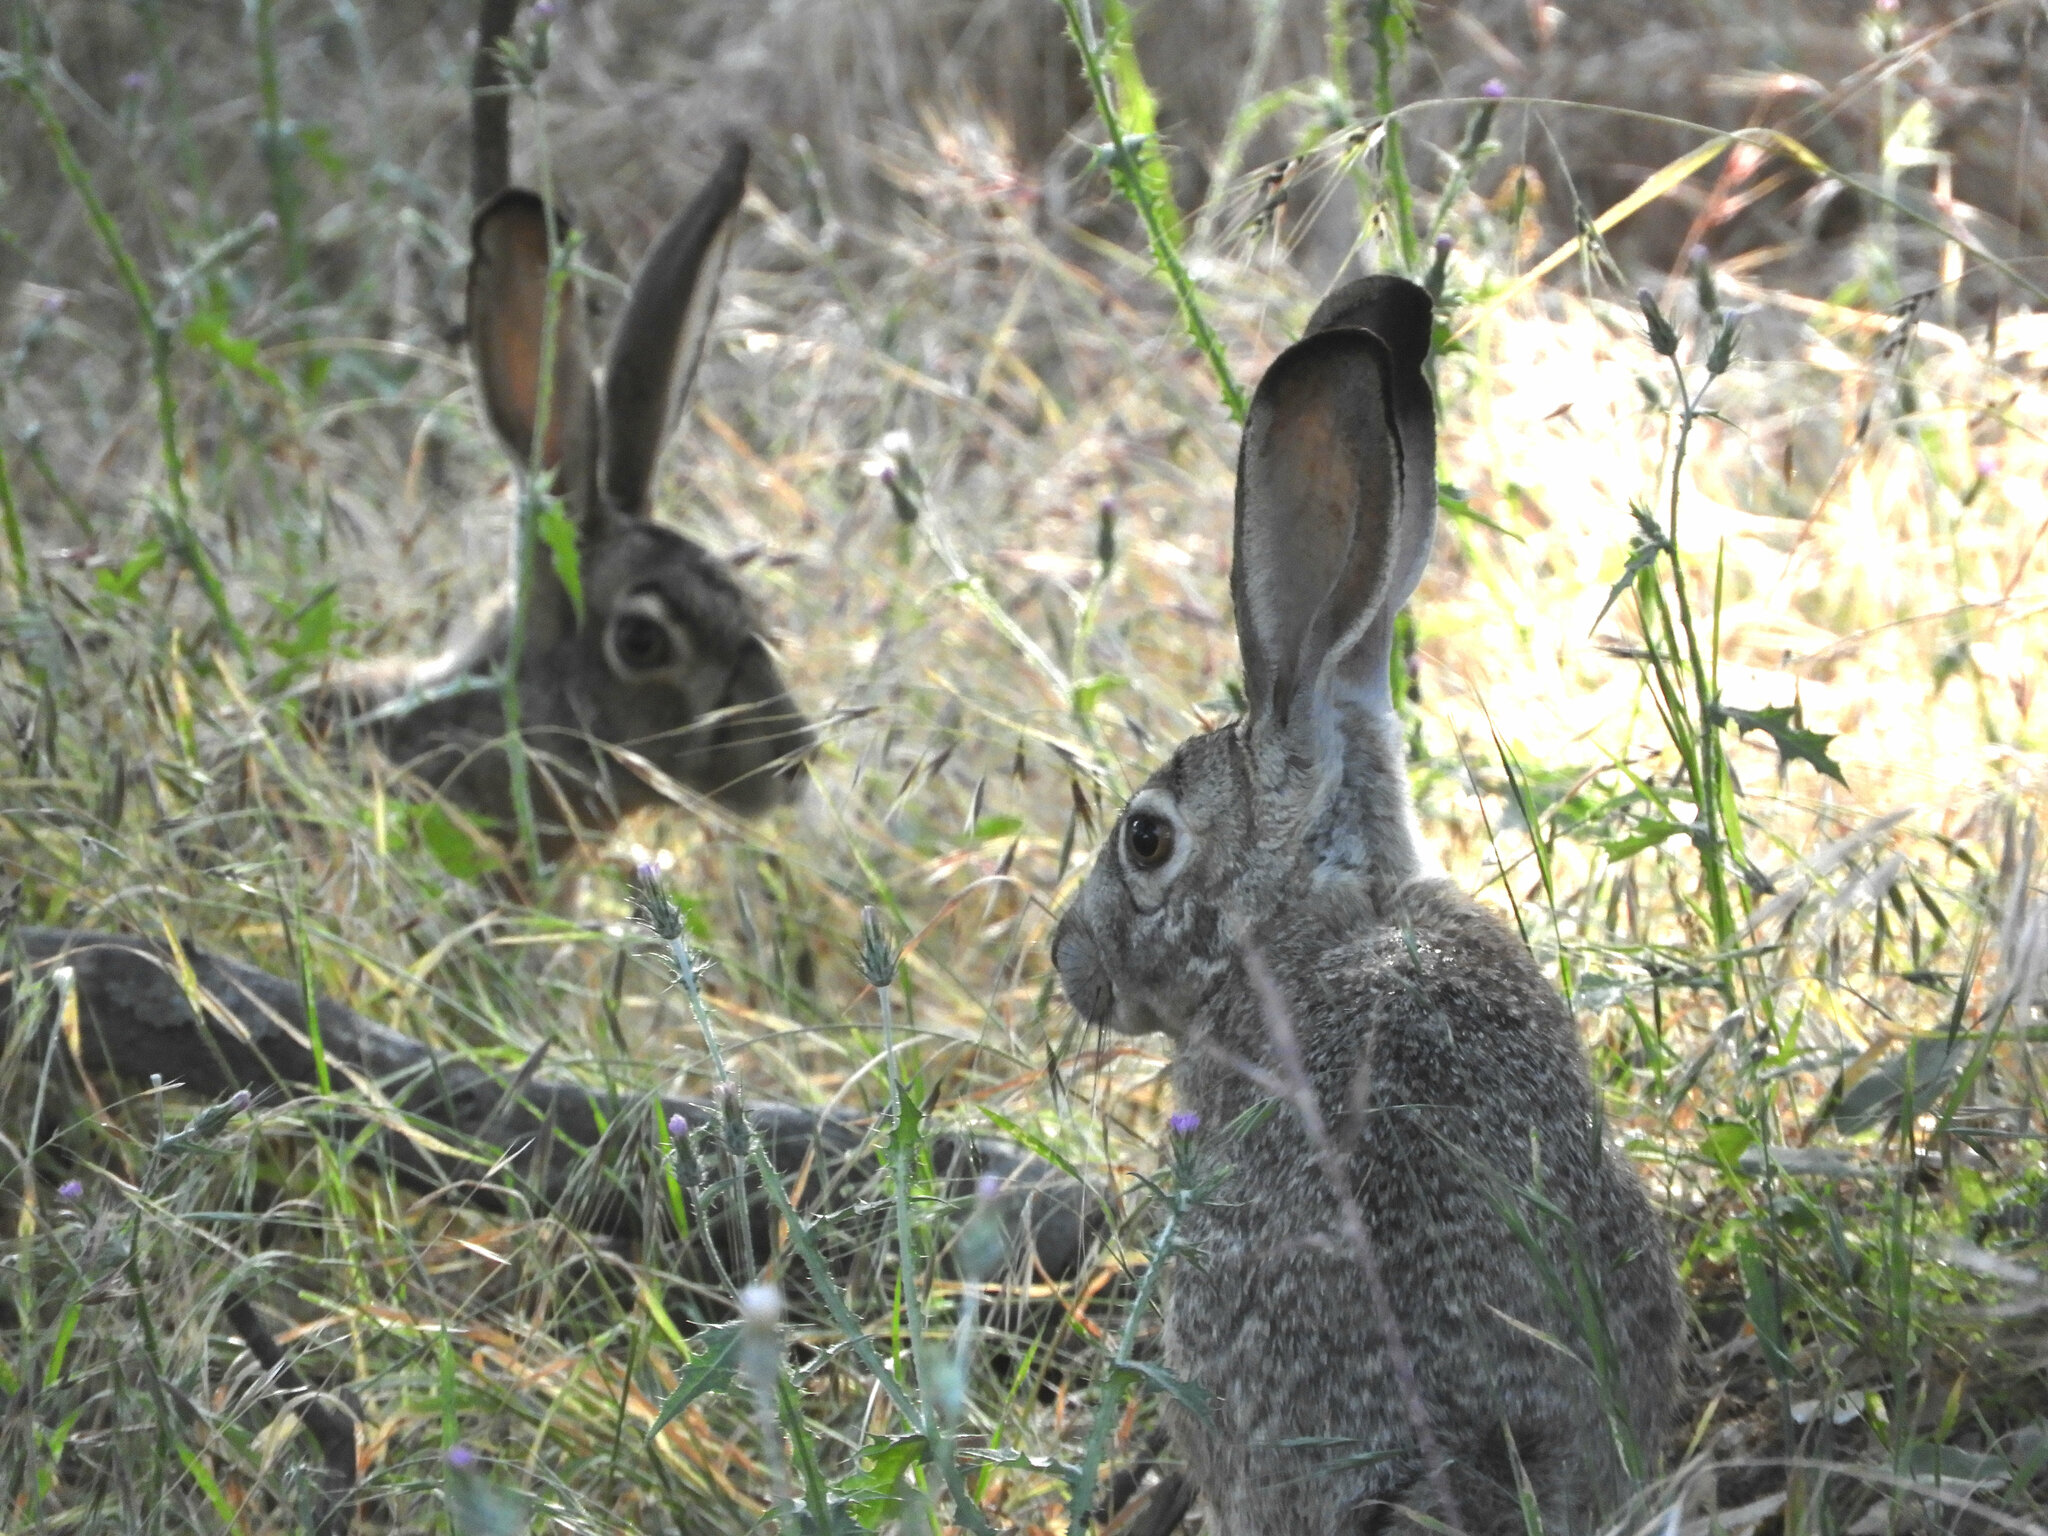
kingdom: Animalia
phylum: Chordata
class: Mammalia
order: Lagomorpha
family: Leporidae
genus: Lepus
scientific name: Lepus californicus
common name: Black-tailed jackrabbit
